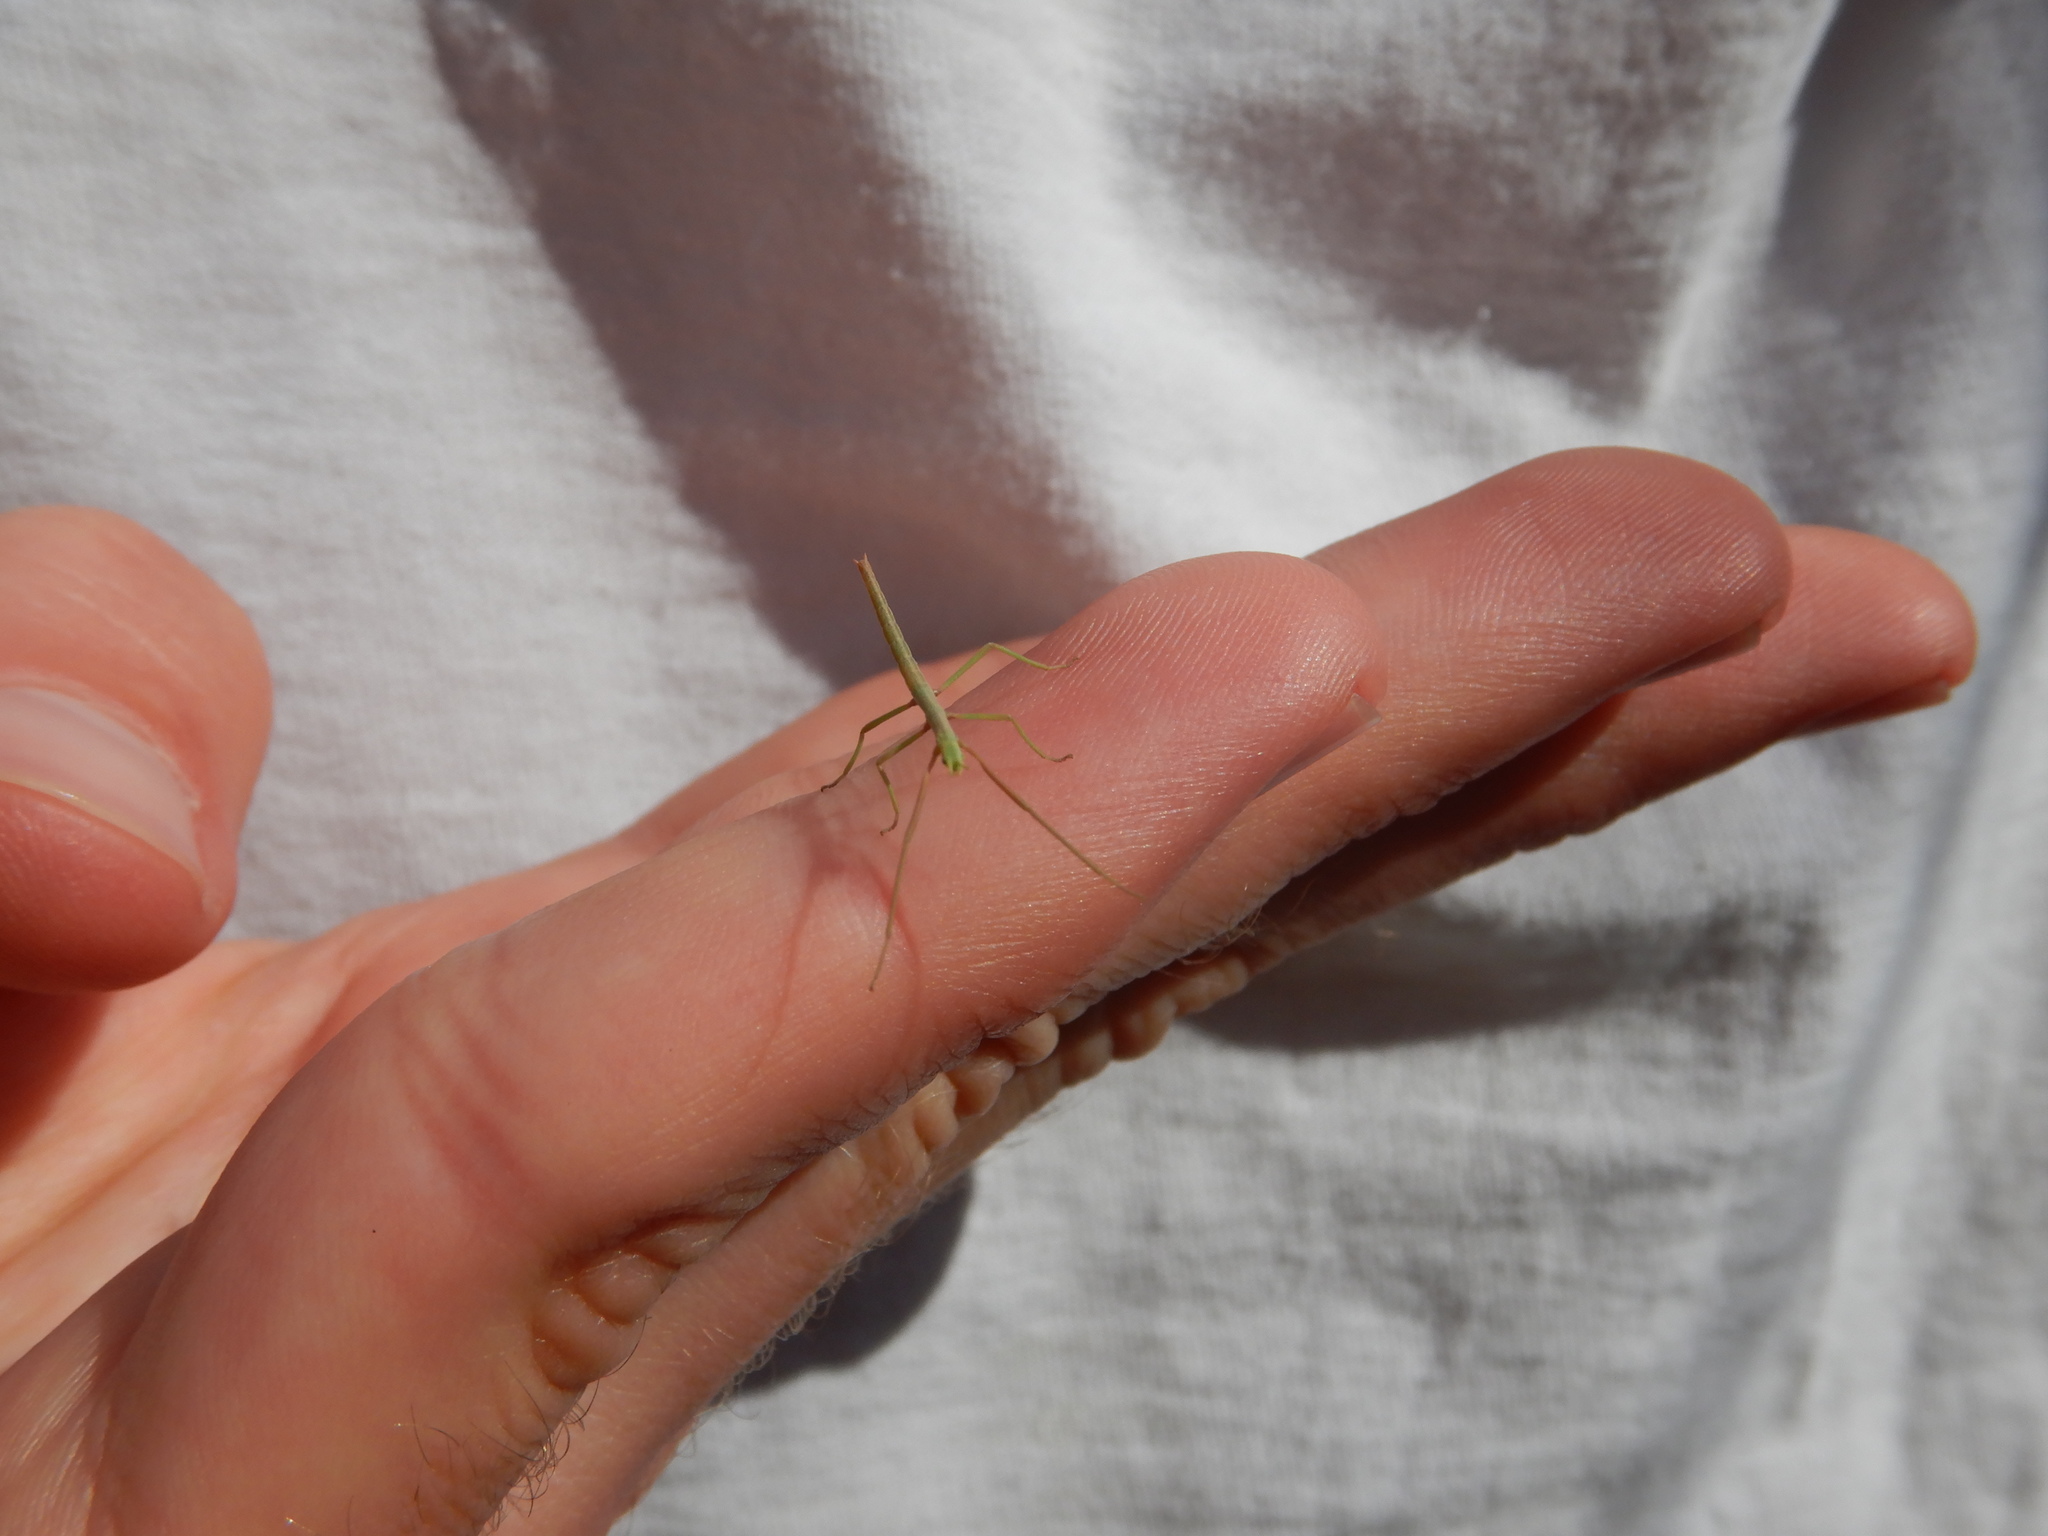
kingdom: Animalia
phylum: Arthropoda
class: Insecta
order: Phasmida
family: Bacillidae
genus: Clonopsis
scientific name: Clonopsis gallica
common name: French stick insect
